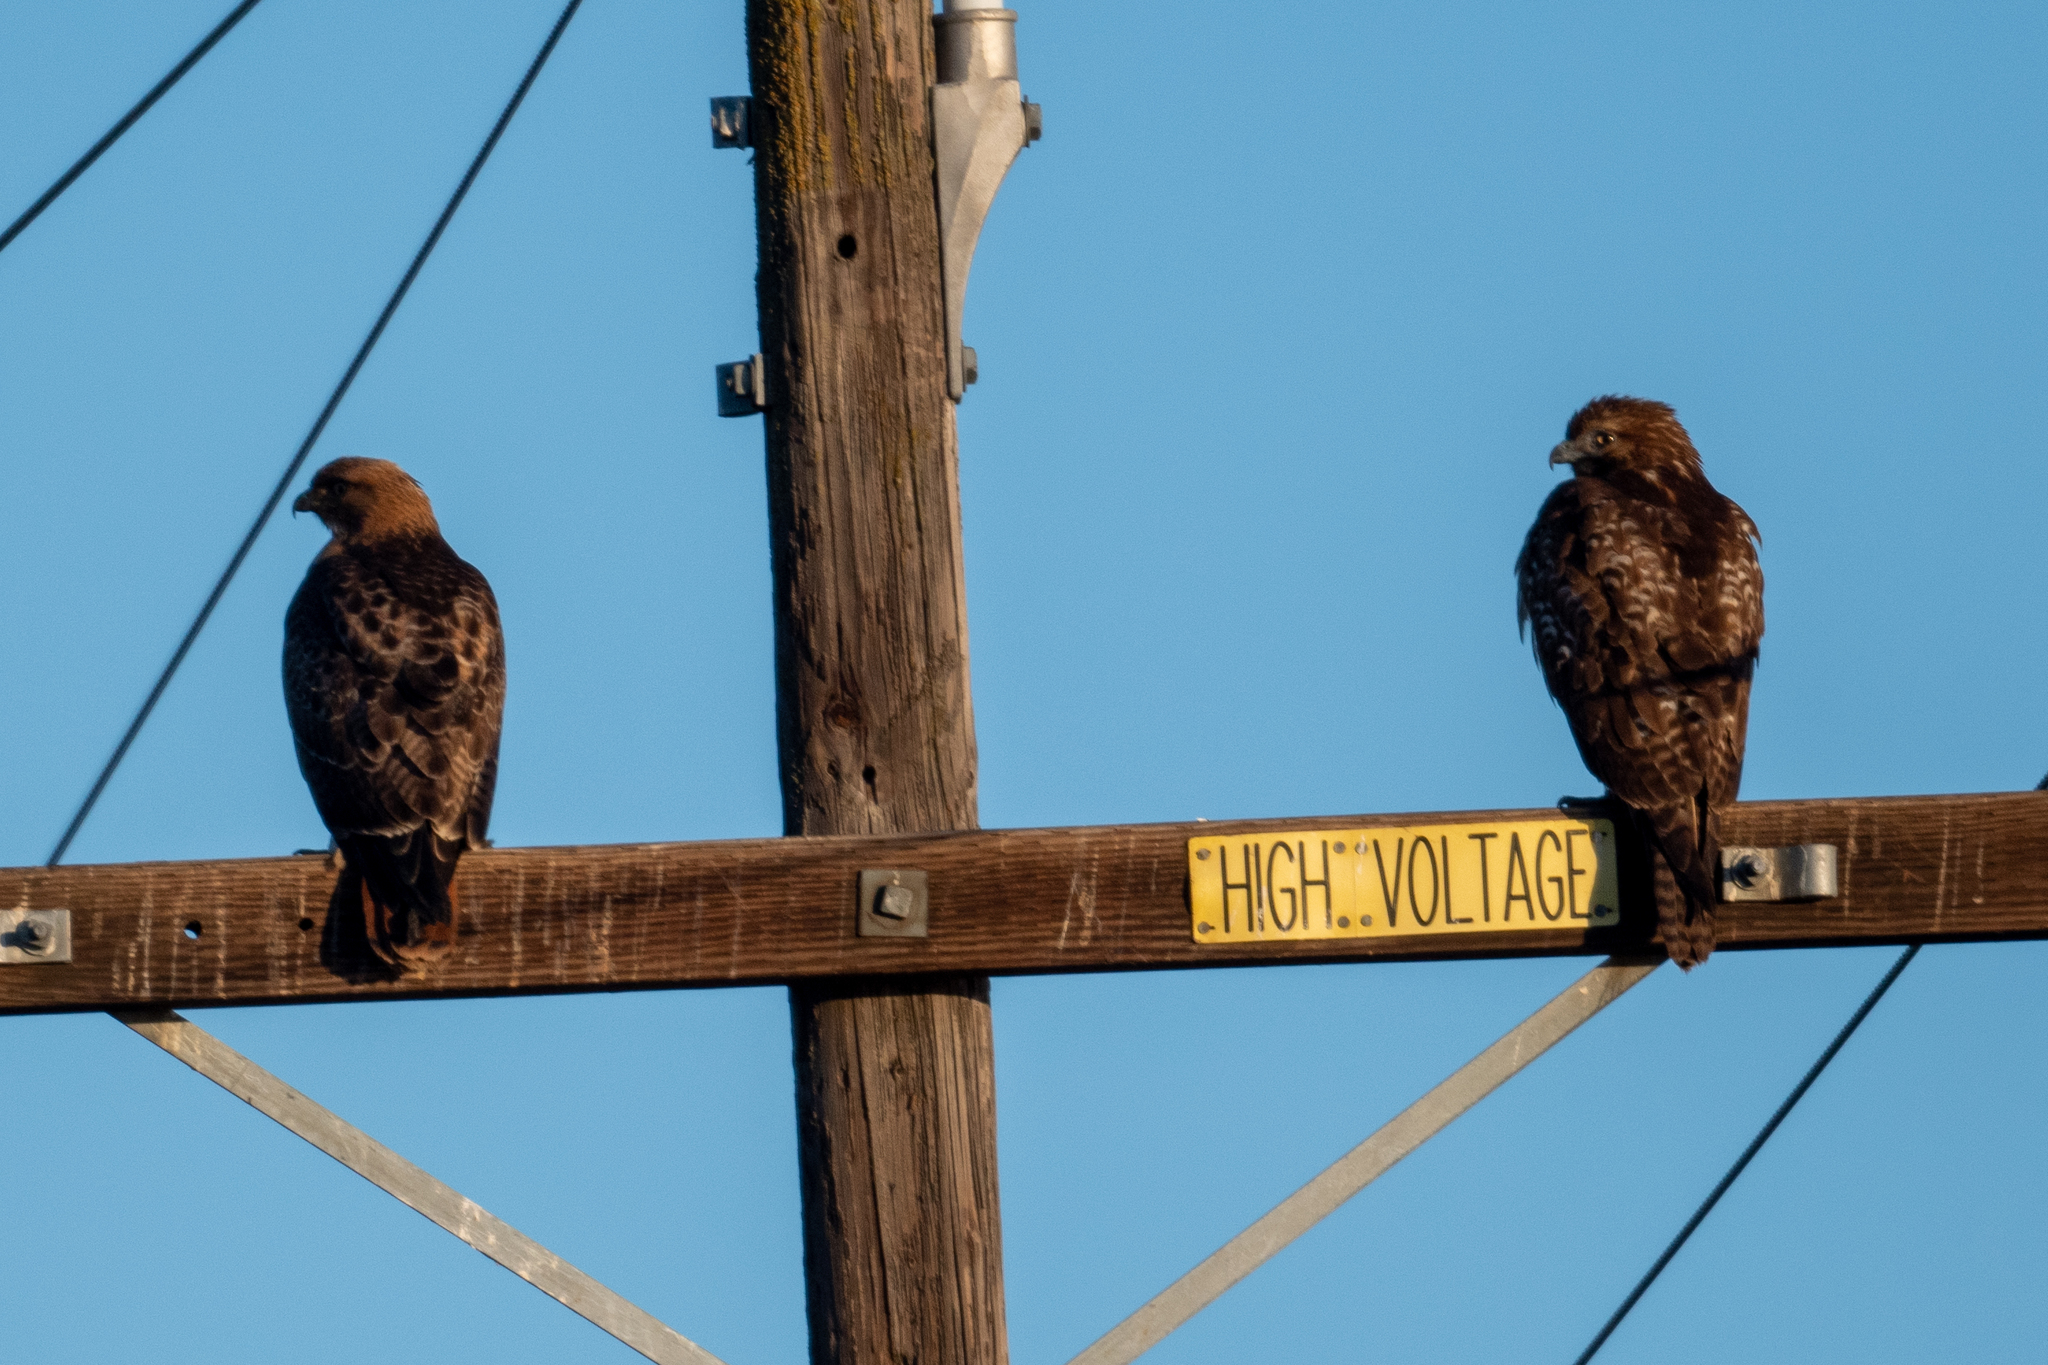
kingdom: Animalia
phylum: Chordata
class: Aves
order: Accipitriformes
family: Accipitridae
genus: Buteo
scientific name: Buteo jamaicensis
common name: Red-tailed hawk
